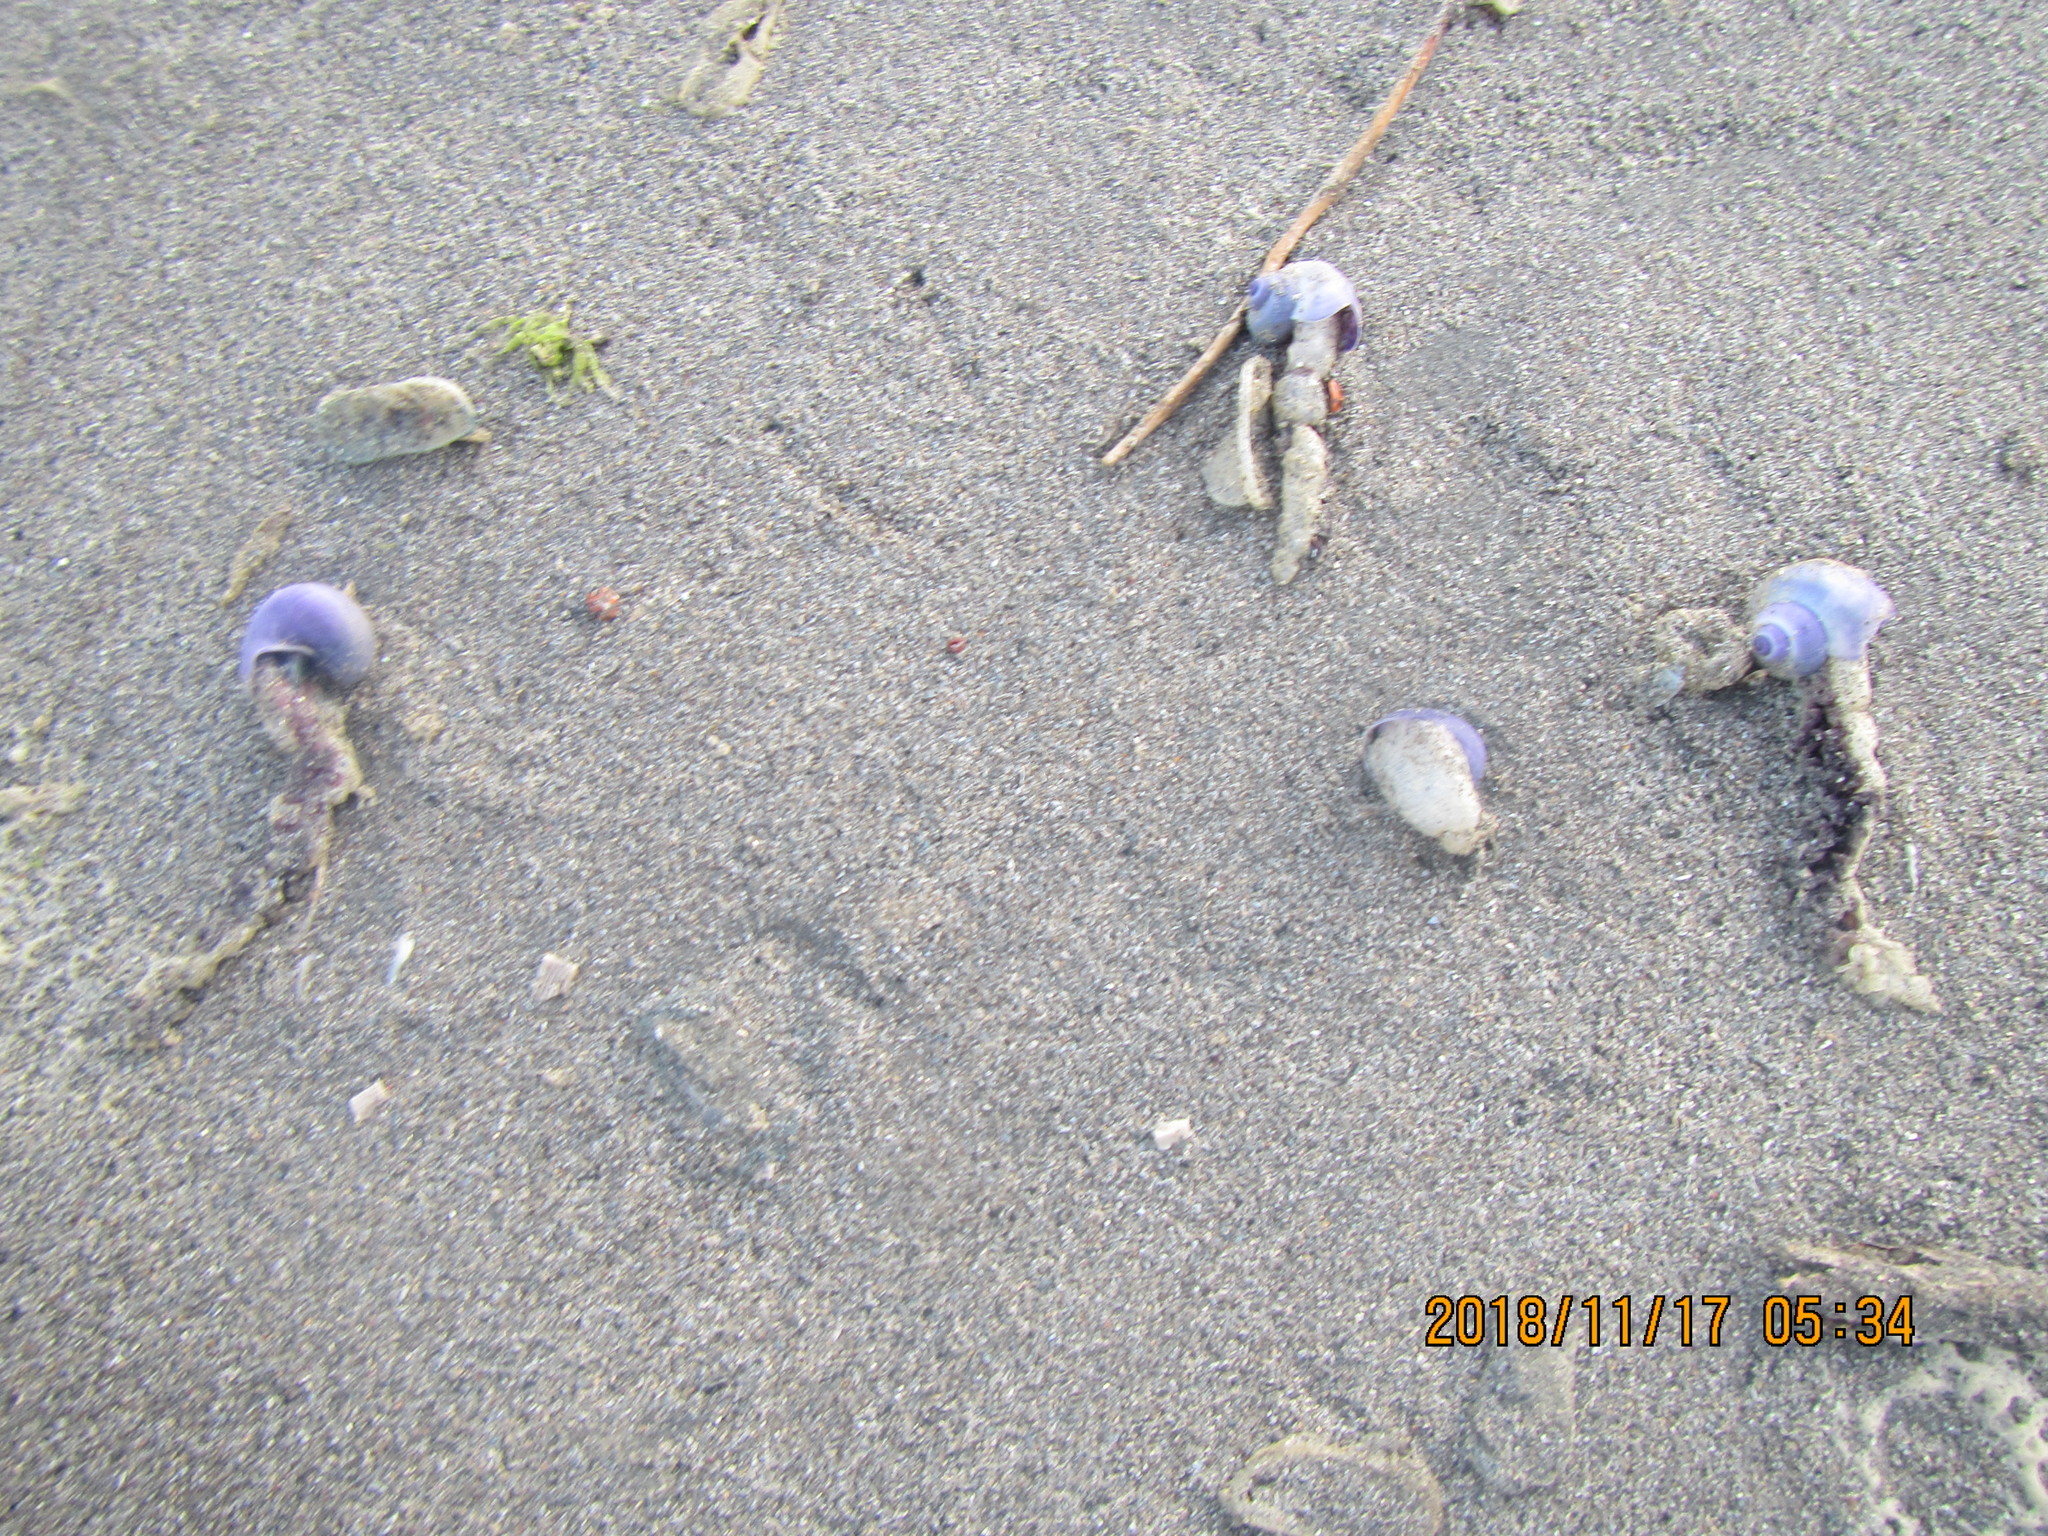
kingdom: Animalia
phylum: Mollusca
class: Gastropoda
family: Epitoniidae
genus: Janthina
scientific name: Janthina exigua
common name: Dwarf janthina
